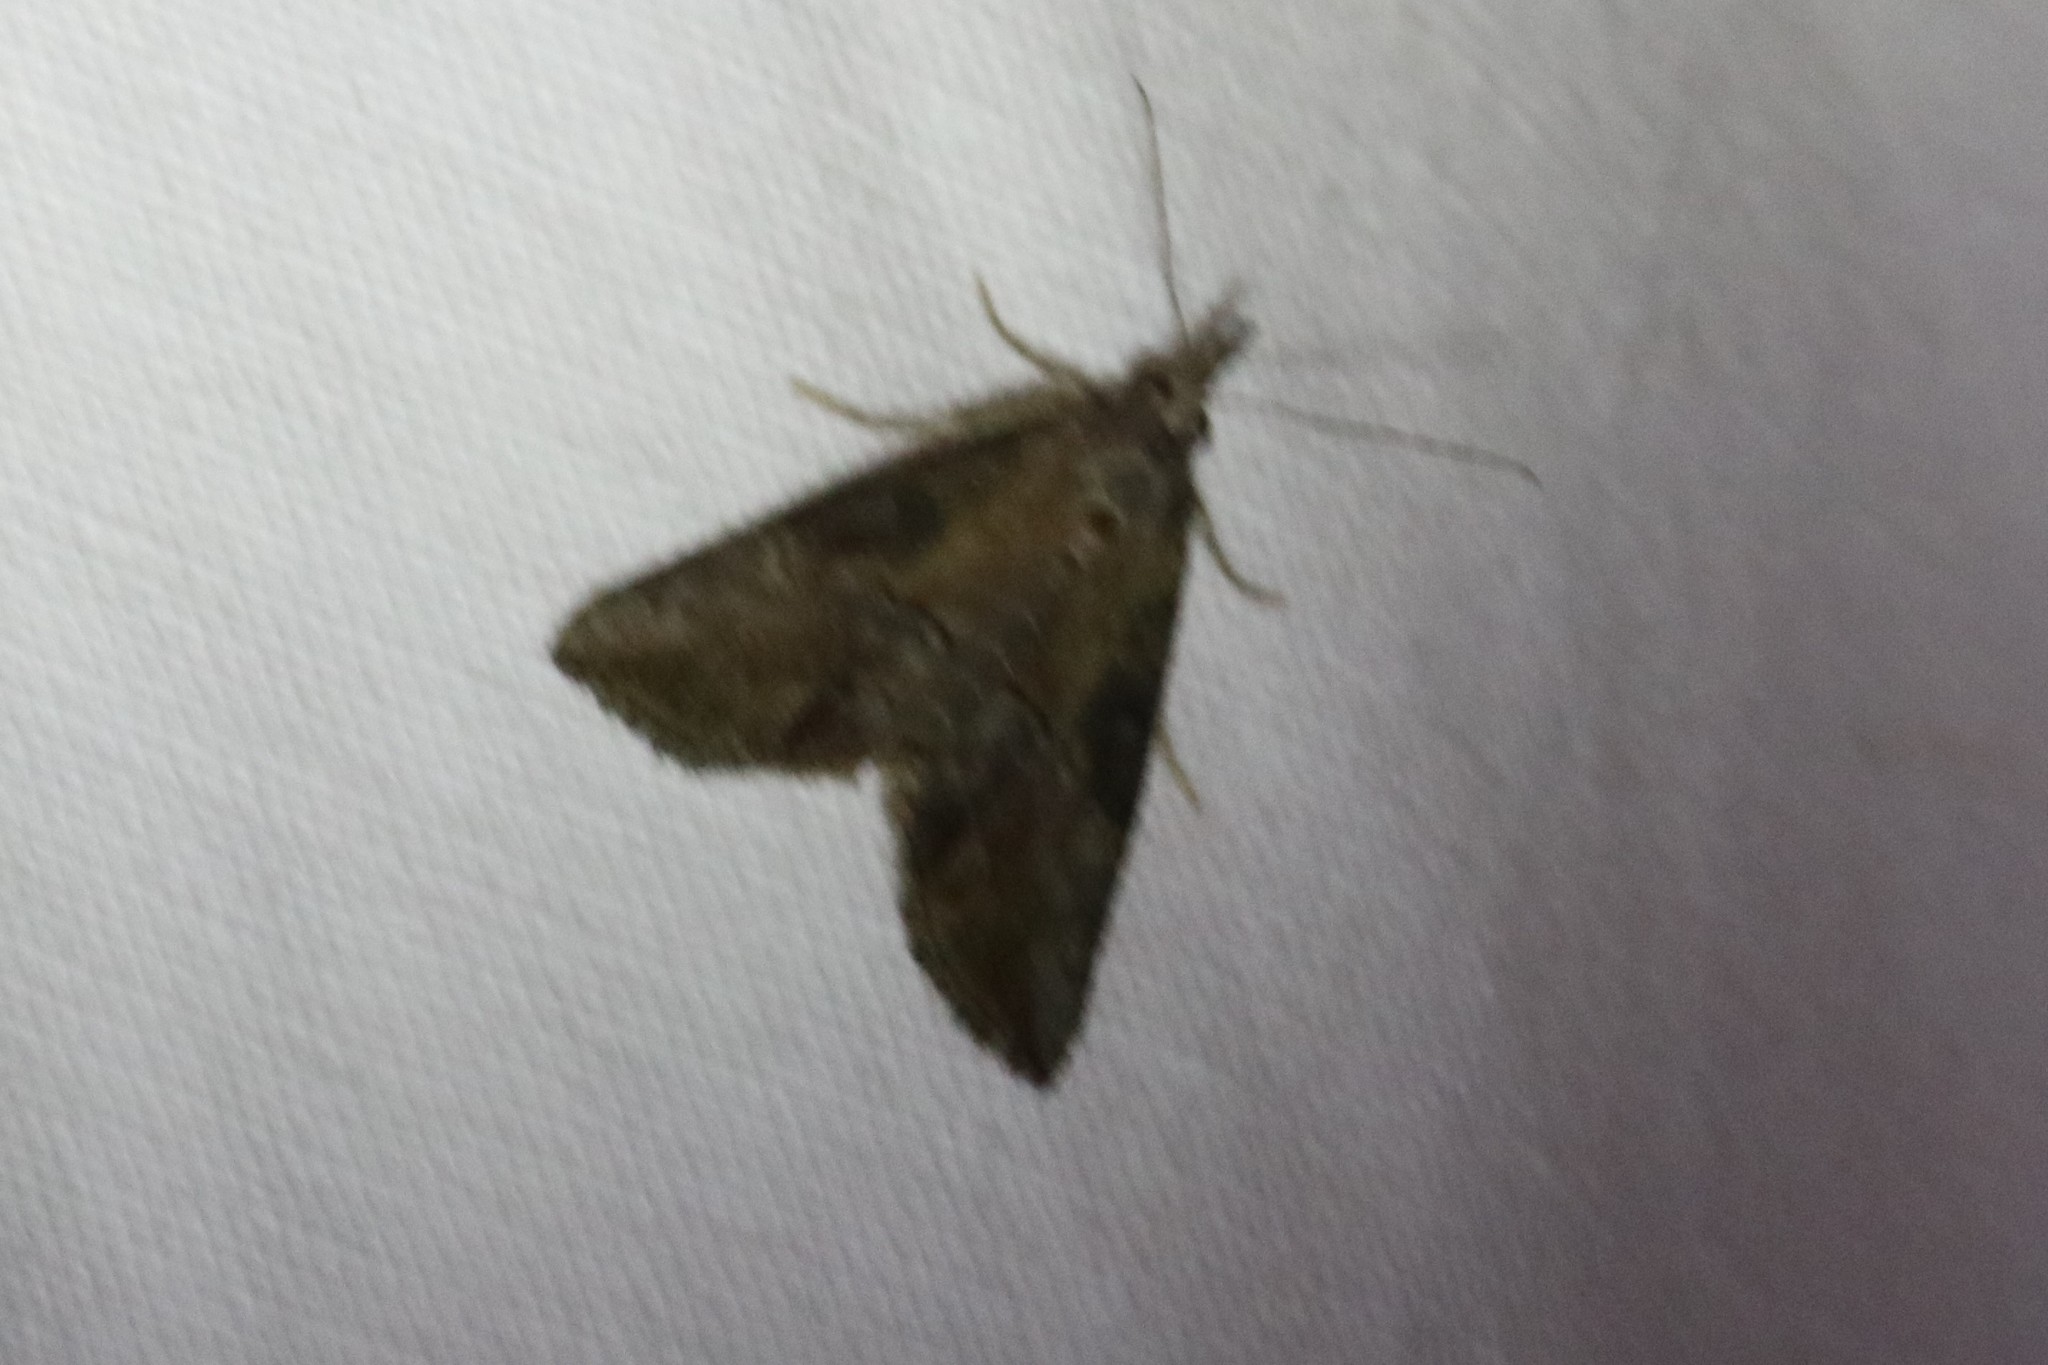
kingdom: Animalia
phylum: Arthropoda
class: Insecta
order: Lepidoptera
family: Erebidae
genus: Hypena
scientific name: Hypena scabra
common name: Green cloverworm
